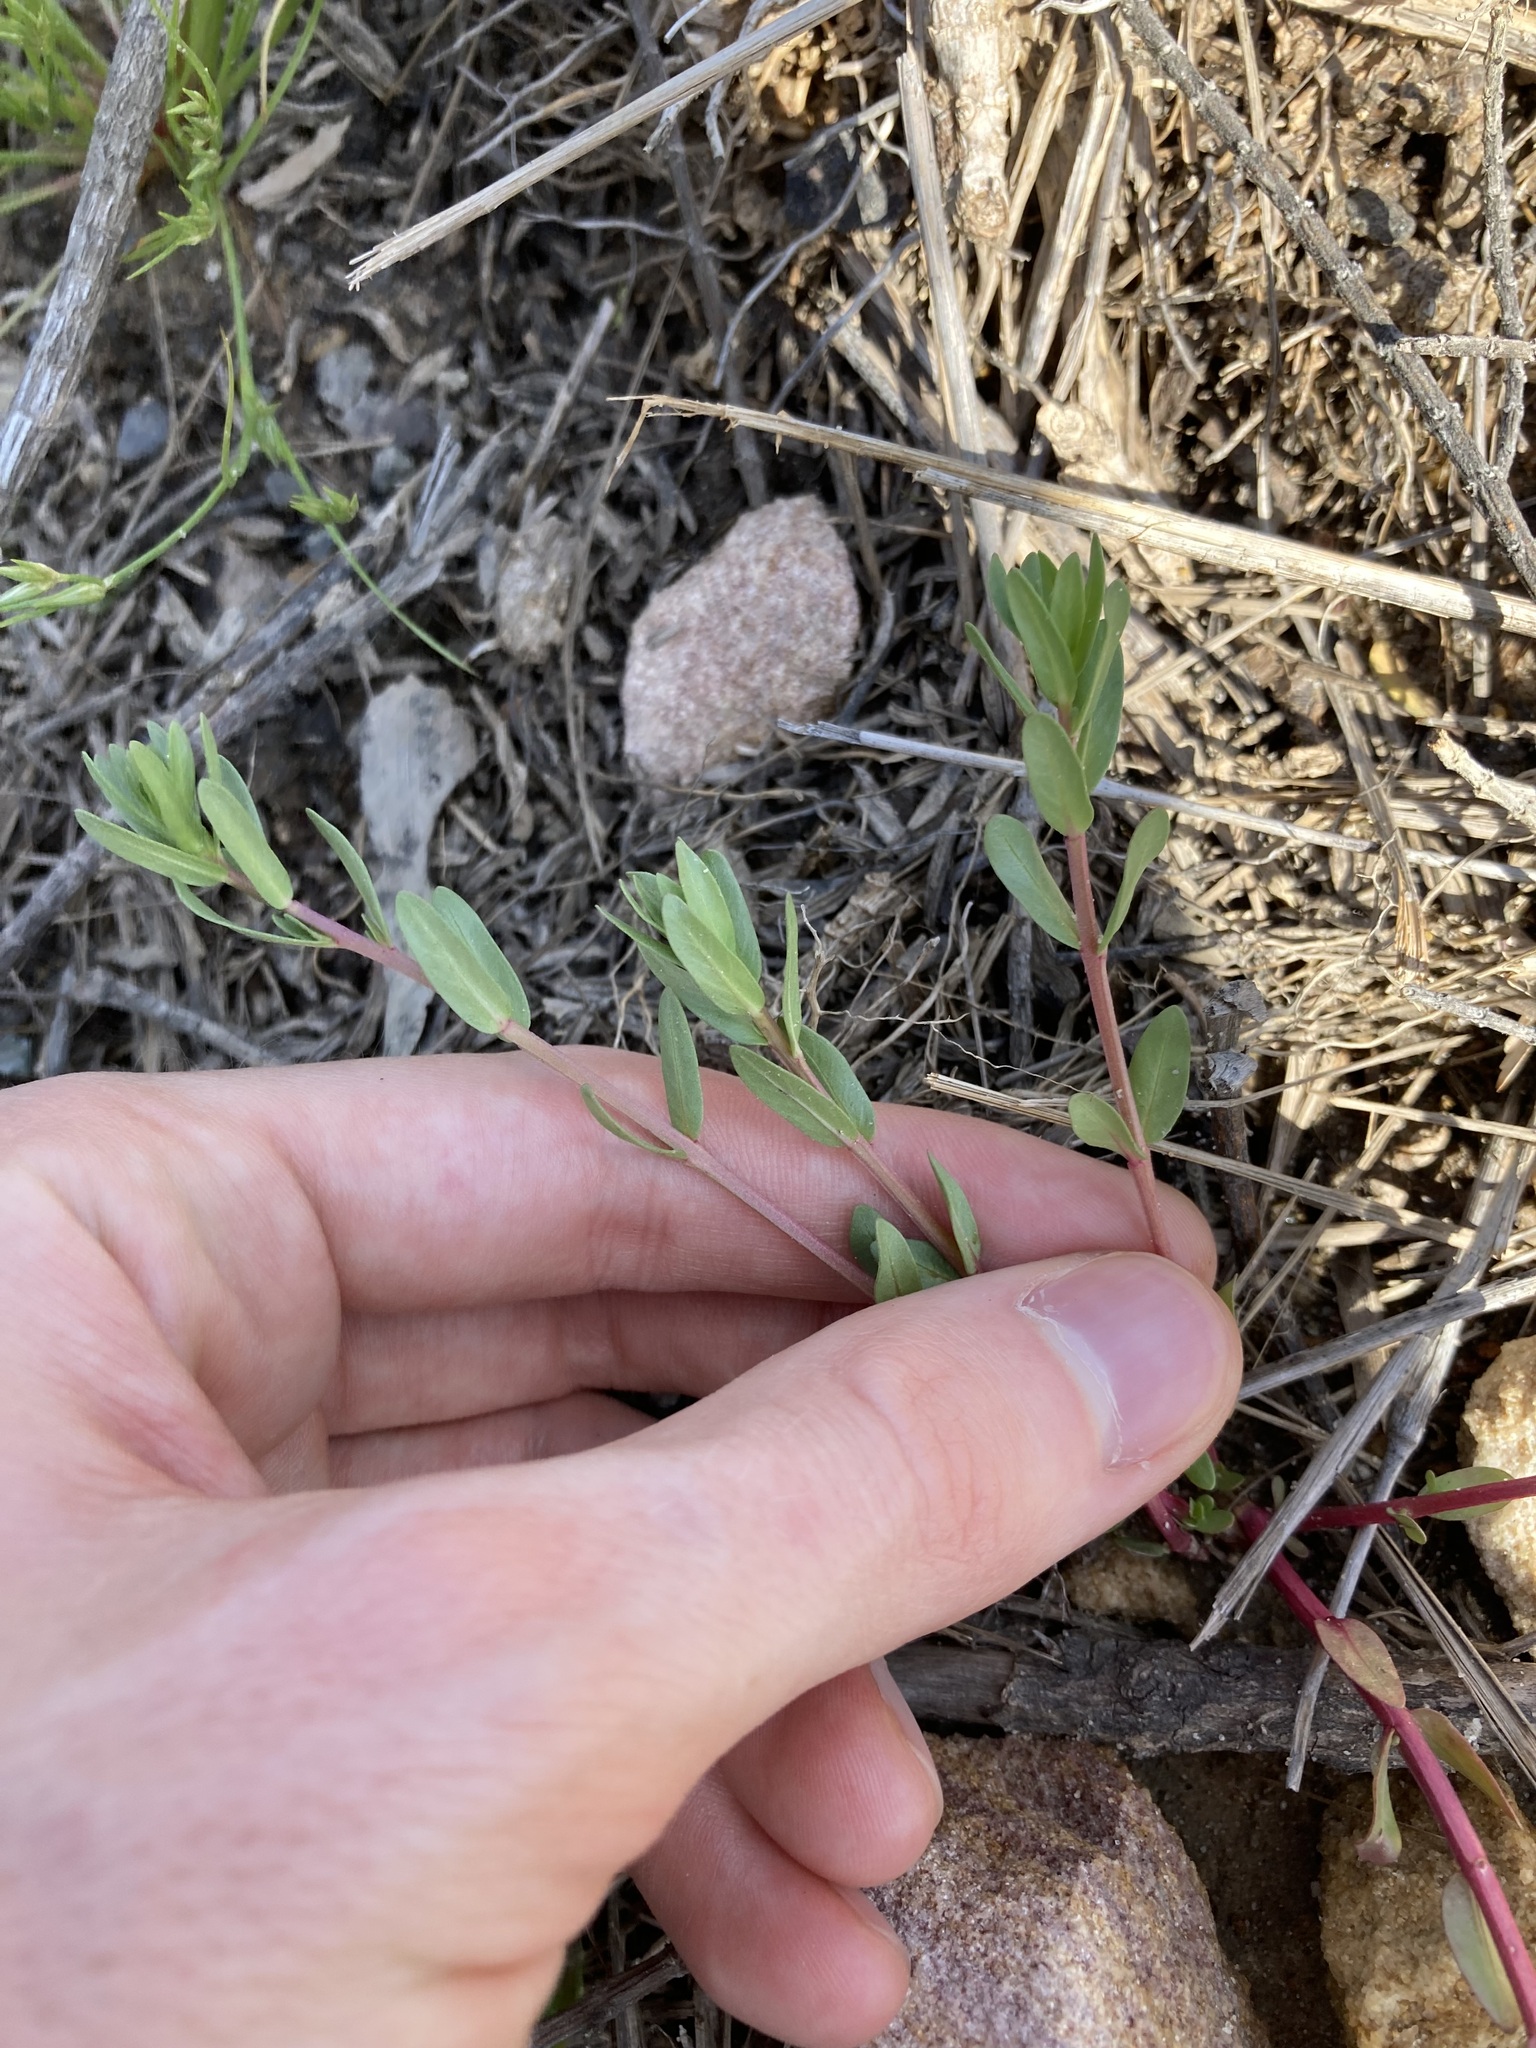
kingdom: Plantae
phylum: Tracheophyta
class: Magnoliopsida
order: Myrtales
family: Lythraceae
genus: Lythrum
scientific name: Lythrum hyssopifolia
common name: Grass-poly
